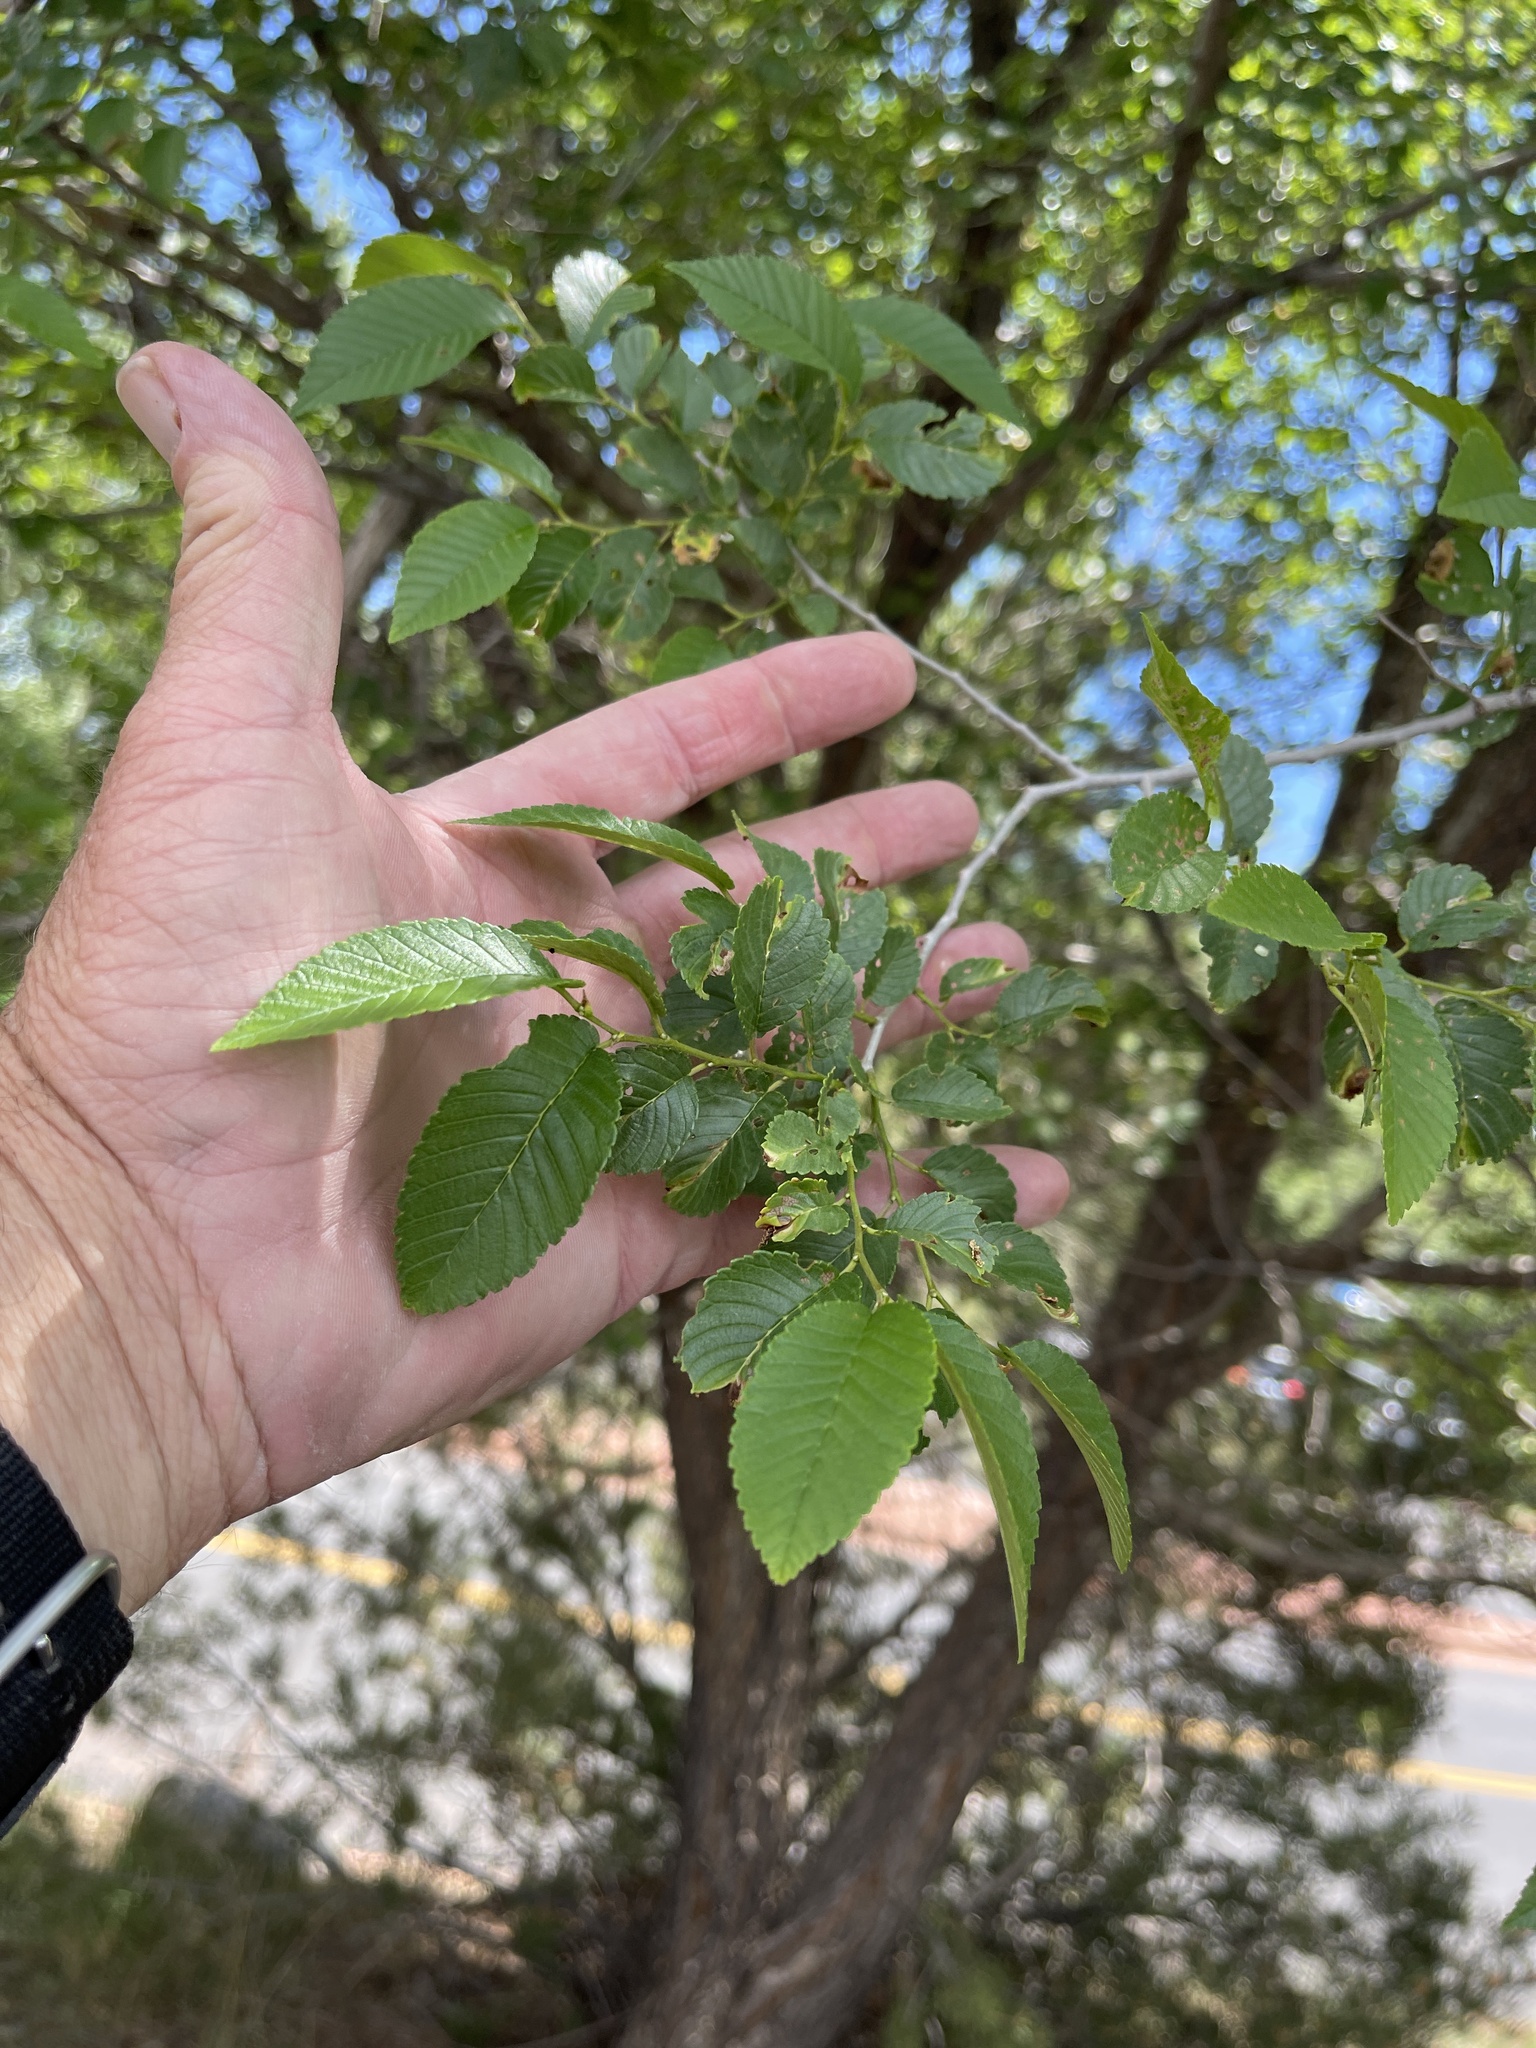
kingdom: Plantae
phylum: Tracheophyta
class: Magnoliopsida
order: Rosales
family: Ulmaceae
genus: Ulmus
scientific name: Ulmus pumila
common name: Siberian elm
